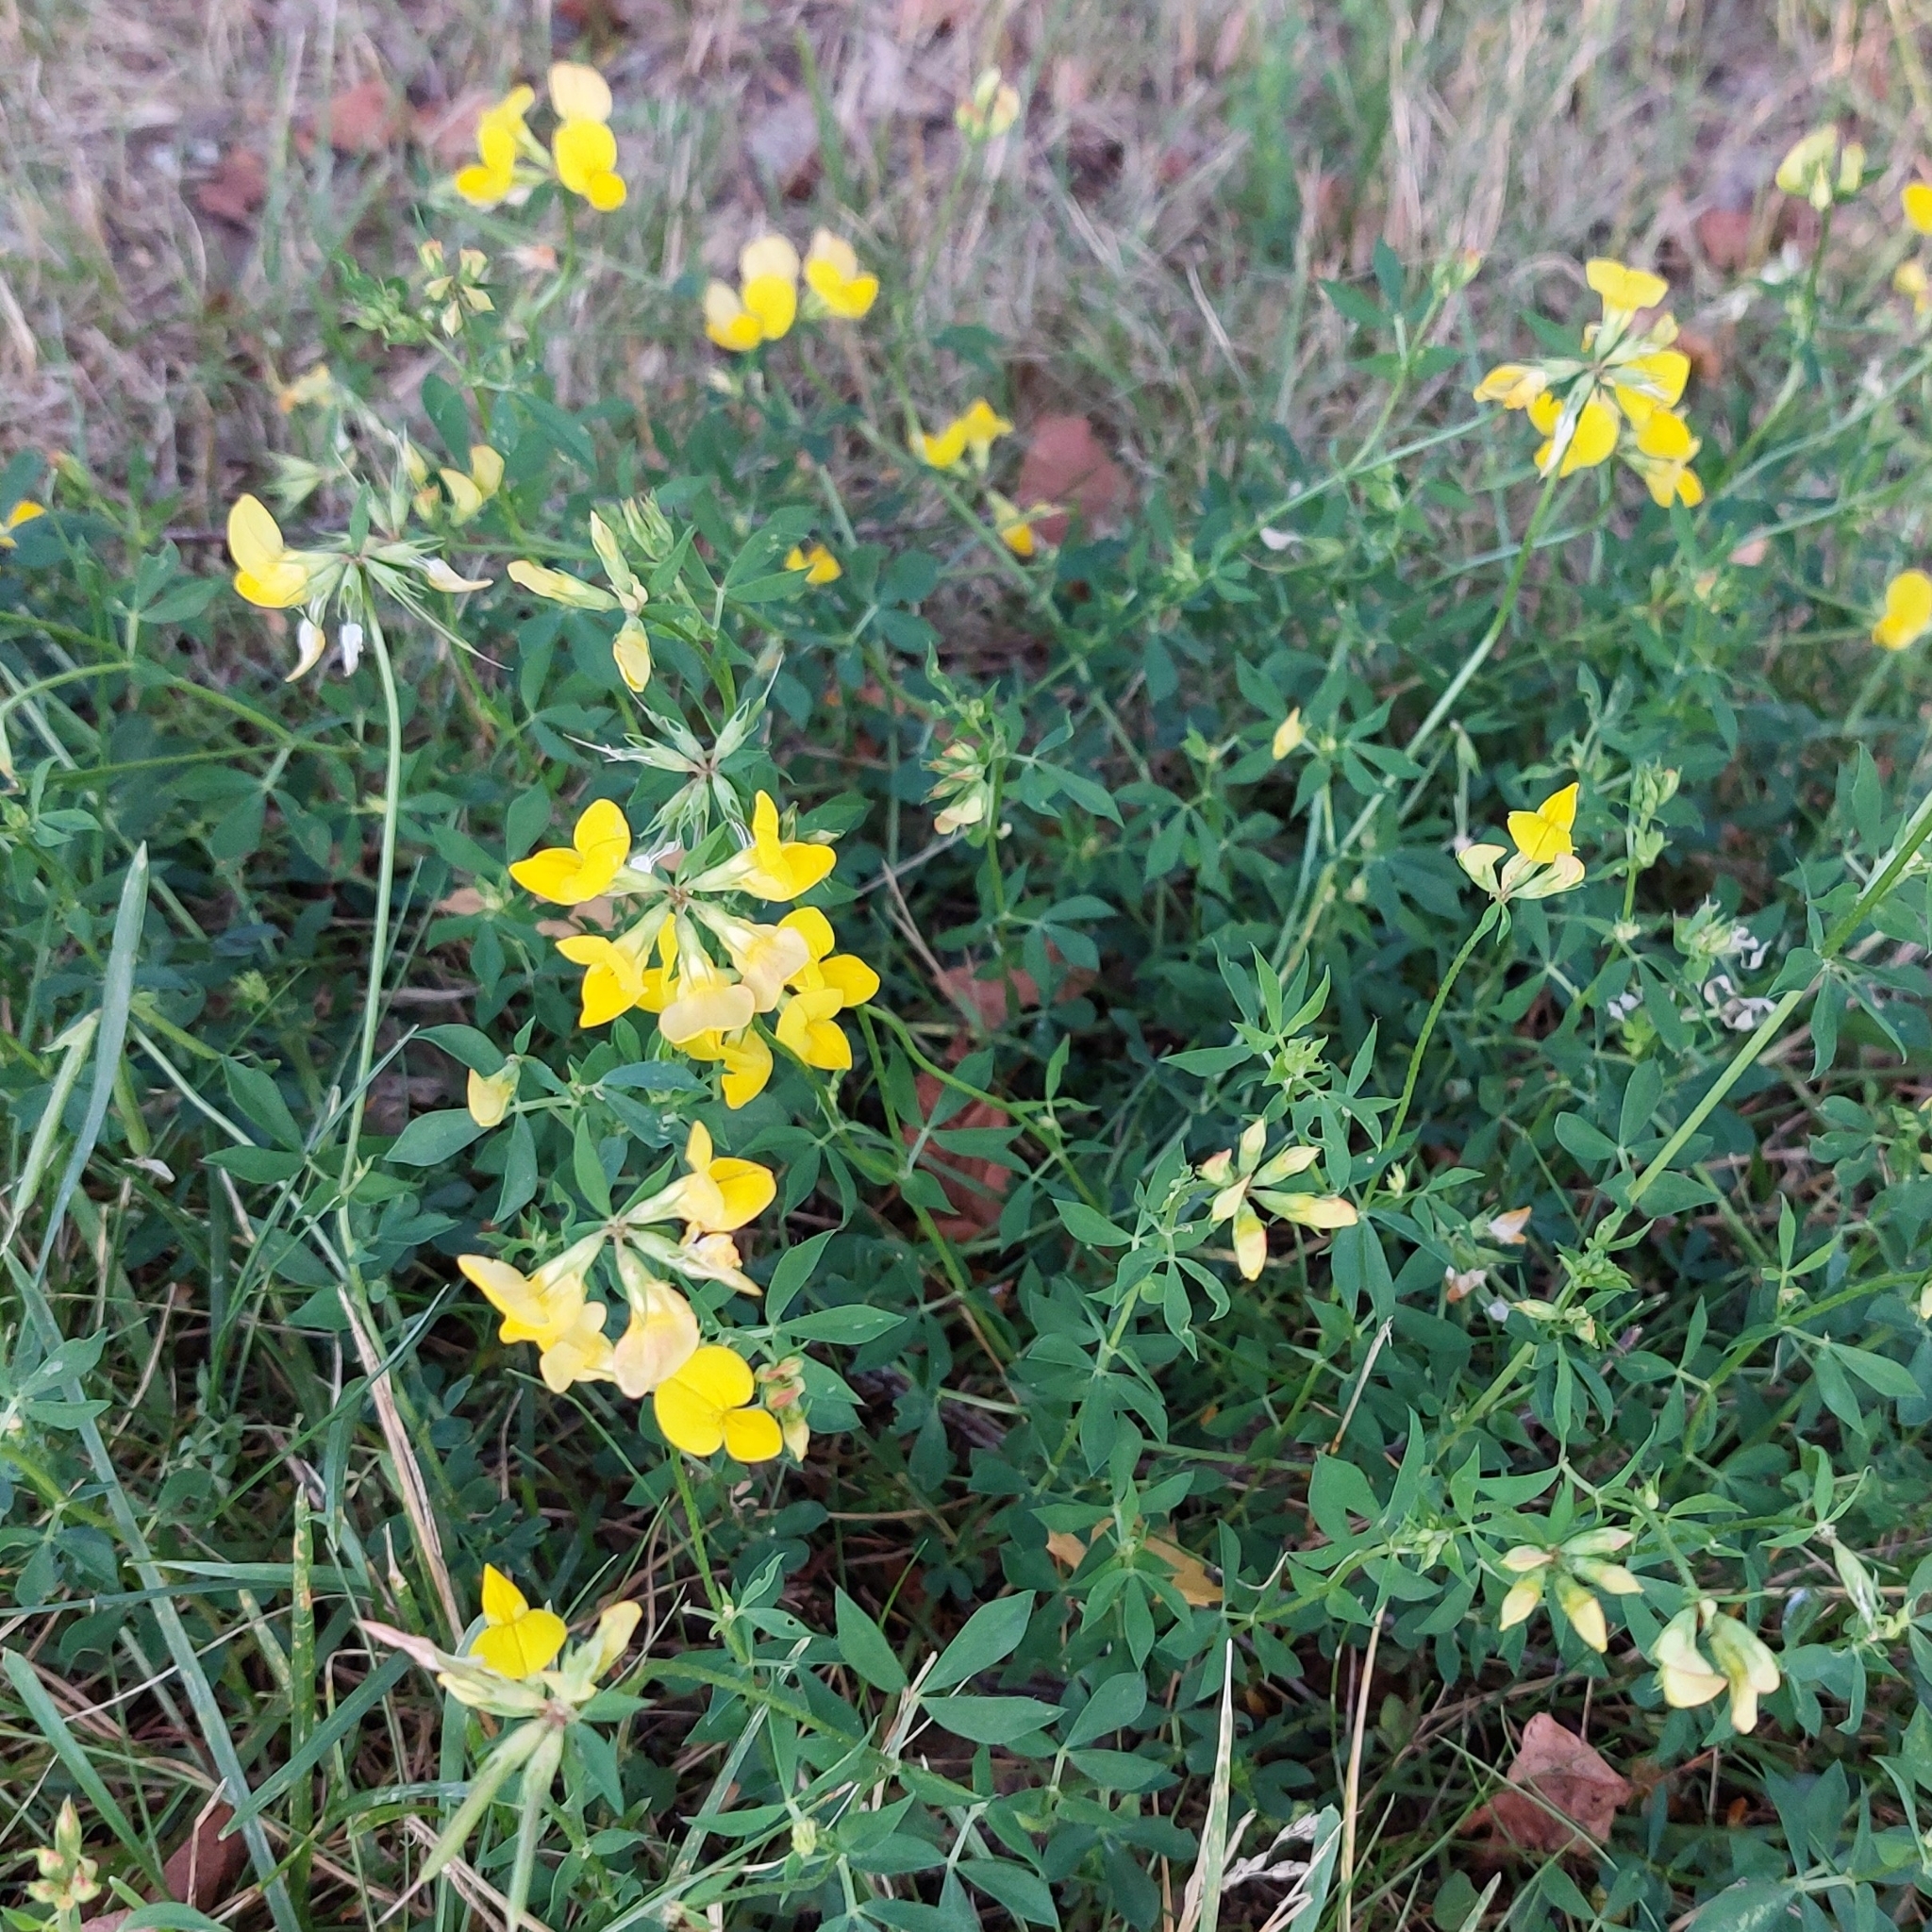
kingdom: Plantae
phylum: Tracheophyta
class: Magnoliopsida
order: Fabales
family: Fabaceae
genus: Lotus
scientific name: Lotus corniculatus
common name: Common bird's-foot-trefoil
